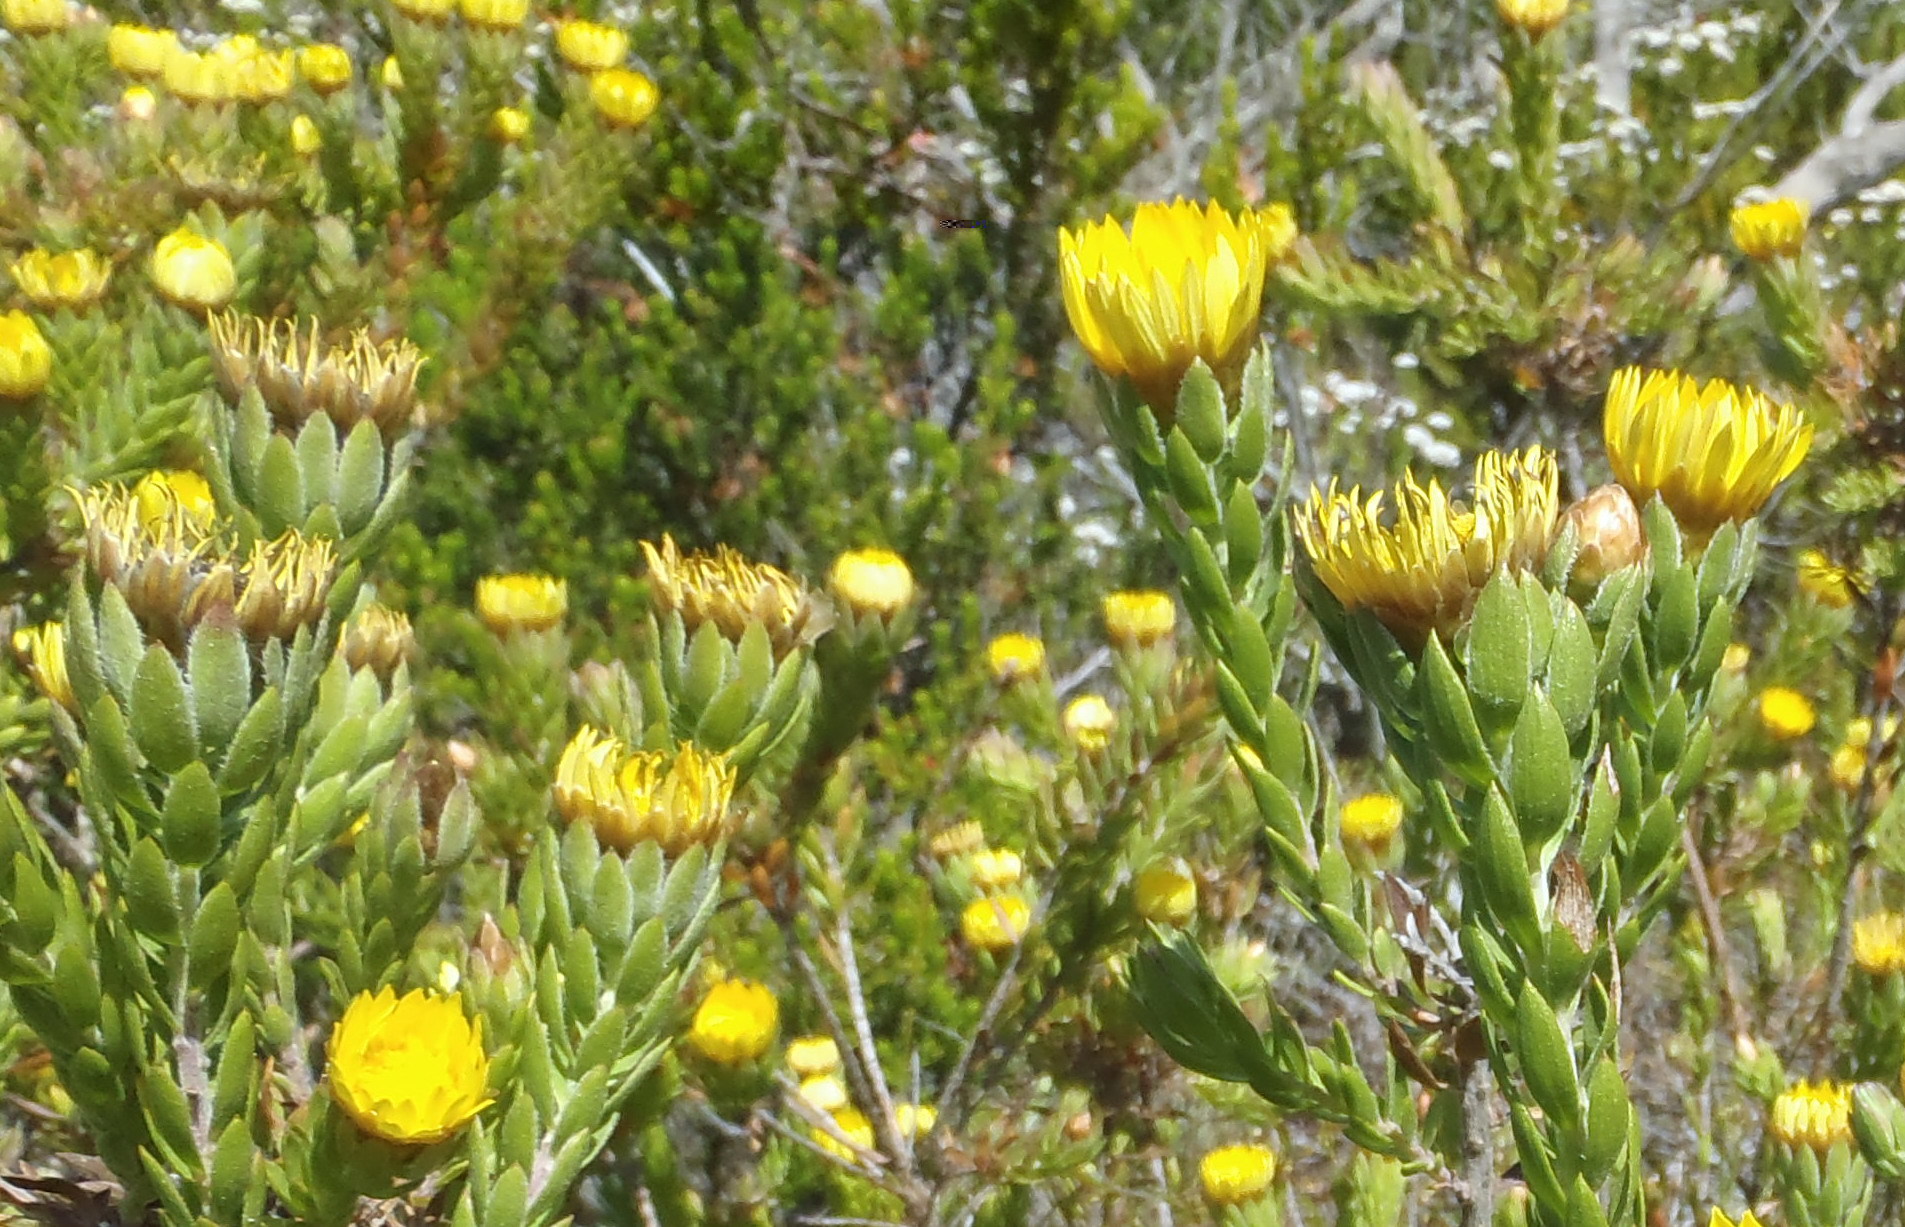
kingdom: Plantae
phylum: Tracheophyta
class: Magnoliopsida
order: Asterales
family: Asteraceae
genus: Oedera
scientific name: Oedera calycina
